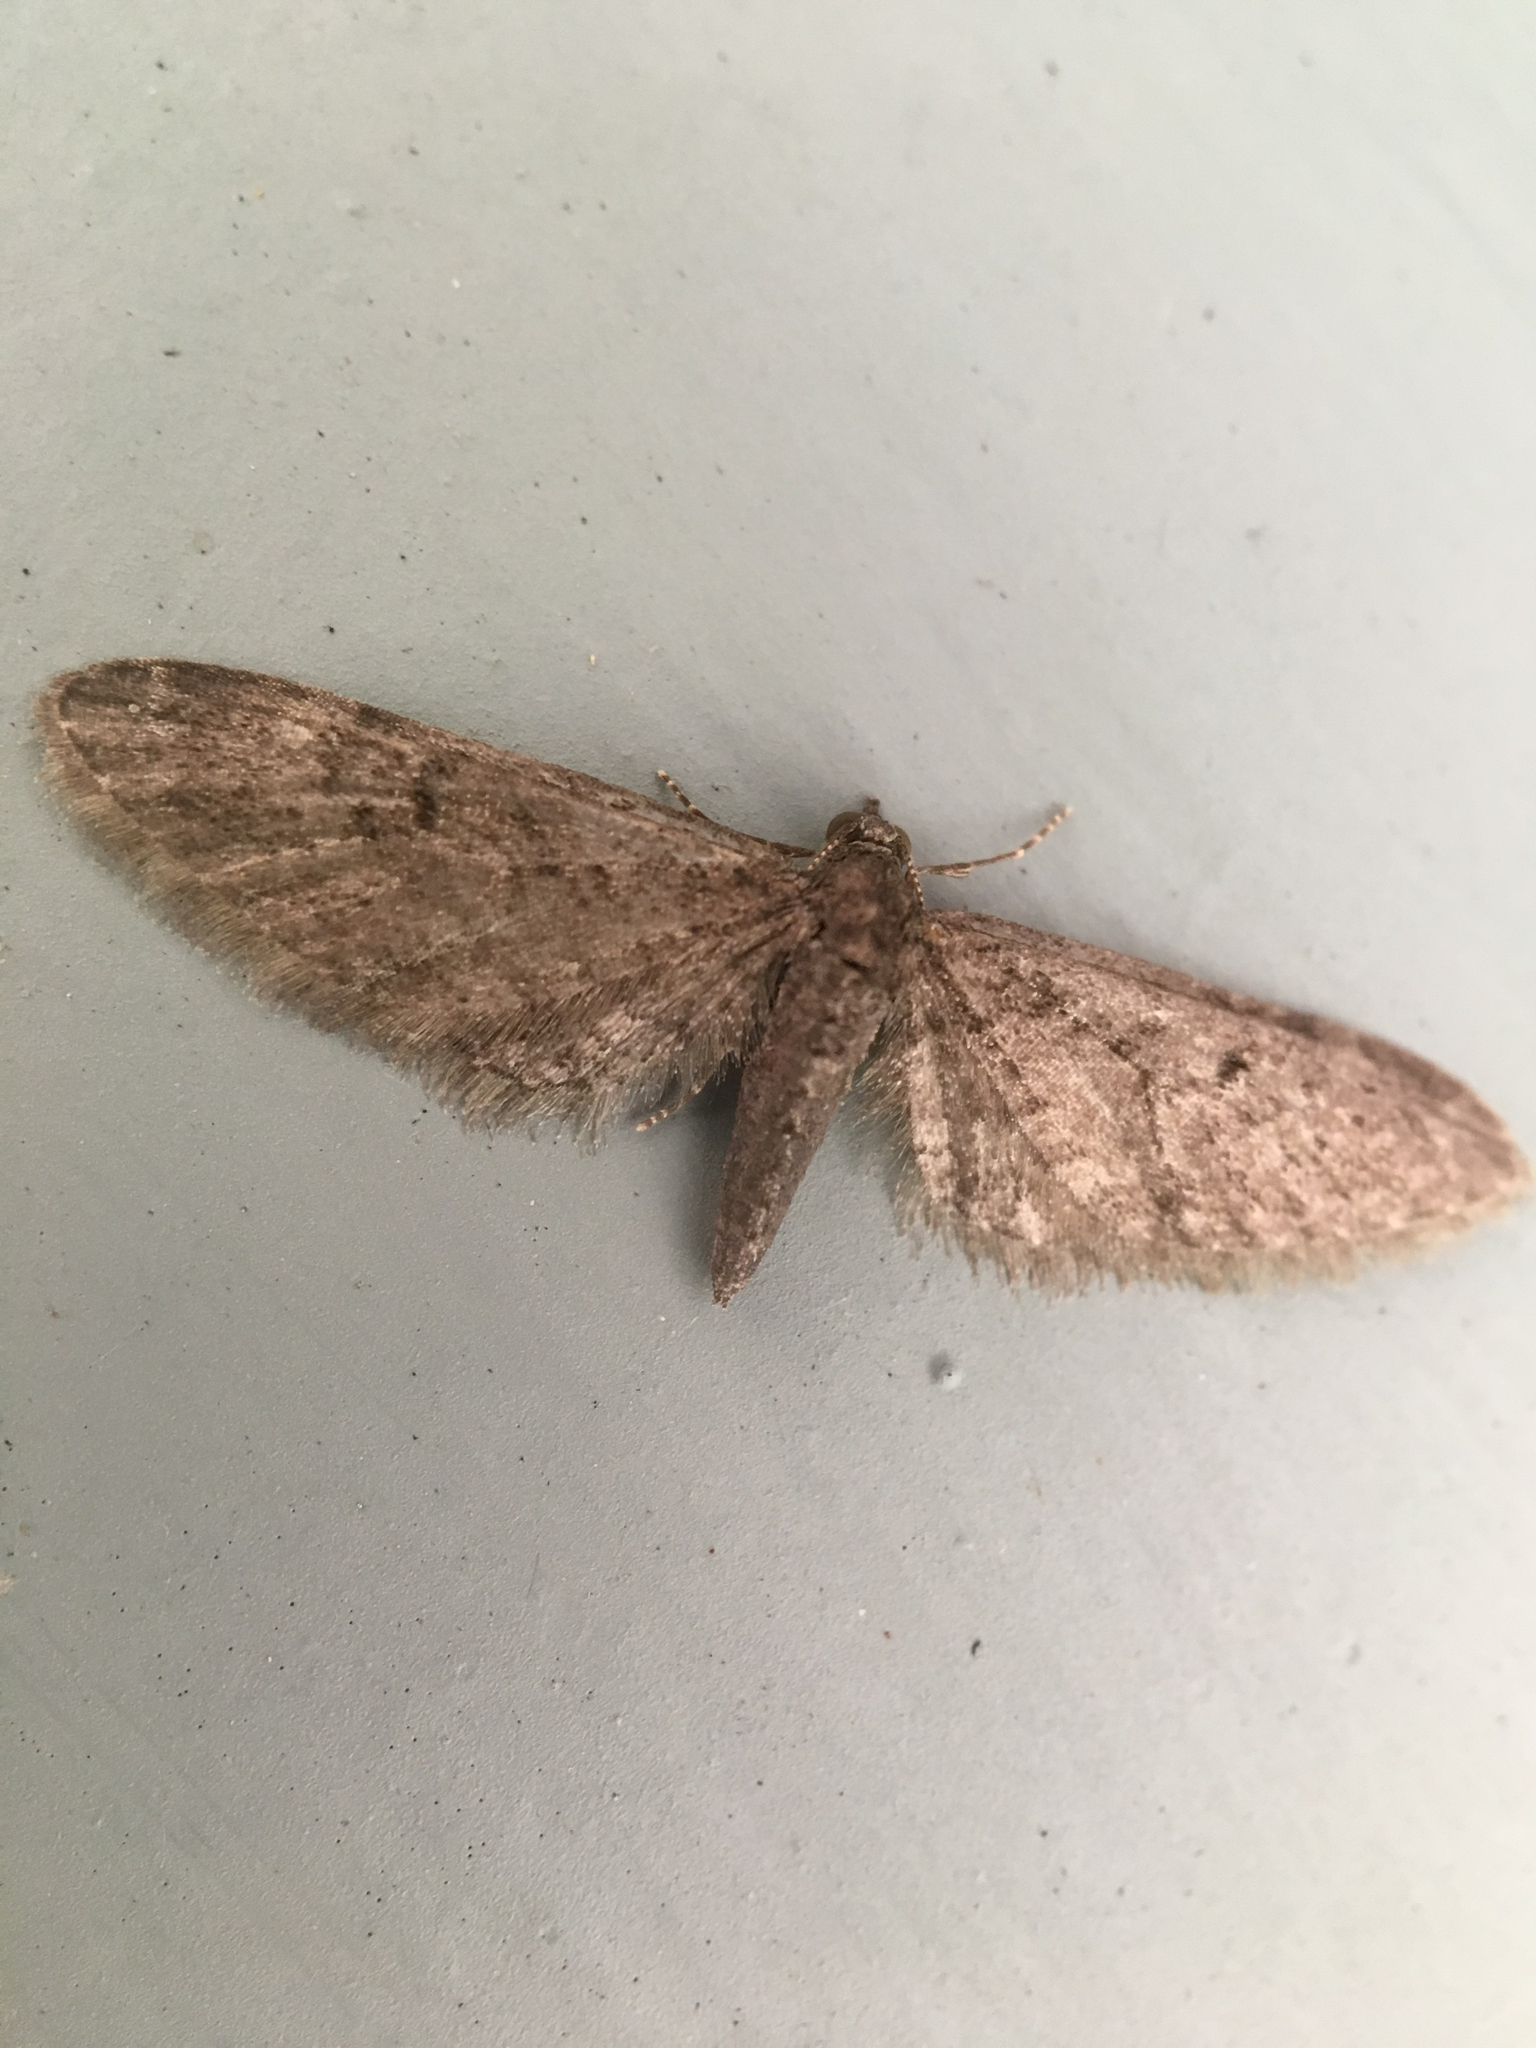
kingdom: Animalia
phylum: Arthropoda
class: Insecta
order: Lepidoptera
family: Geometridae
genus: Eupithecia
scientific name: Eupithecia
